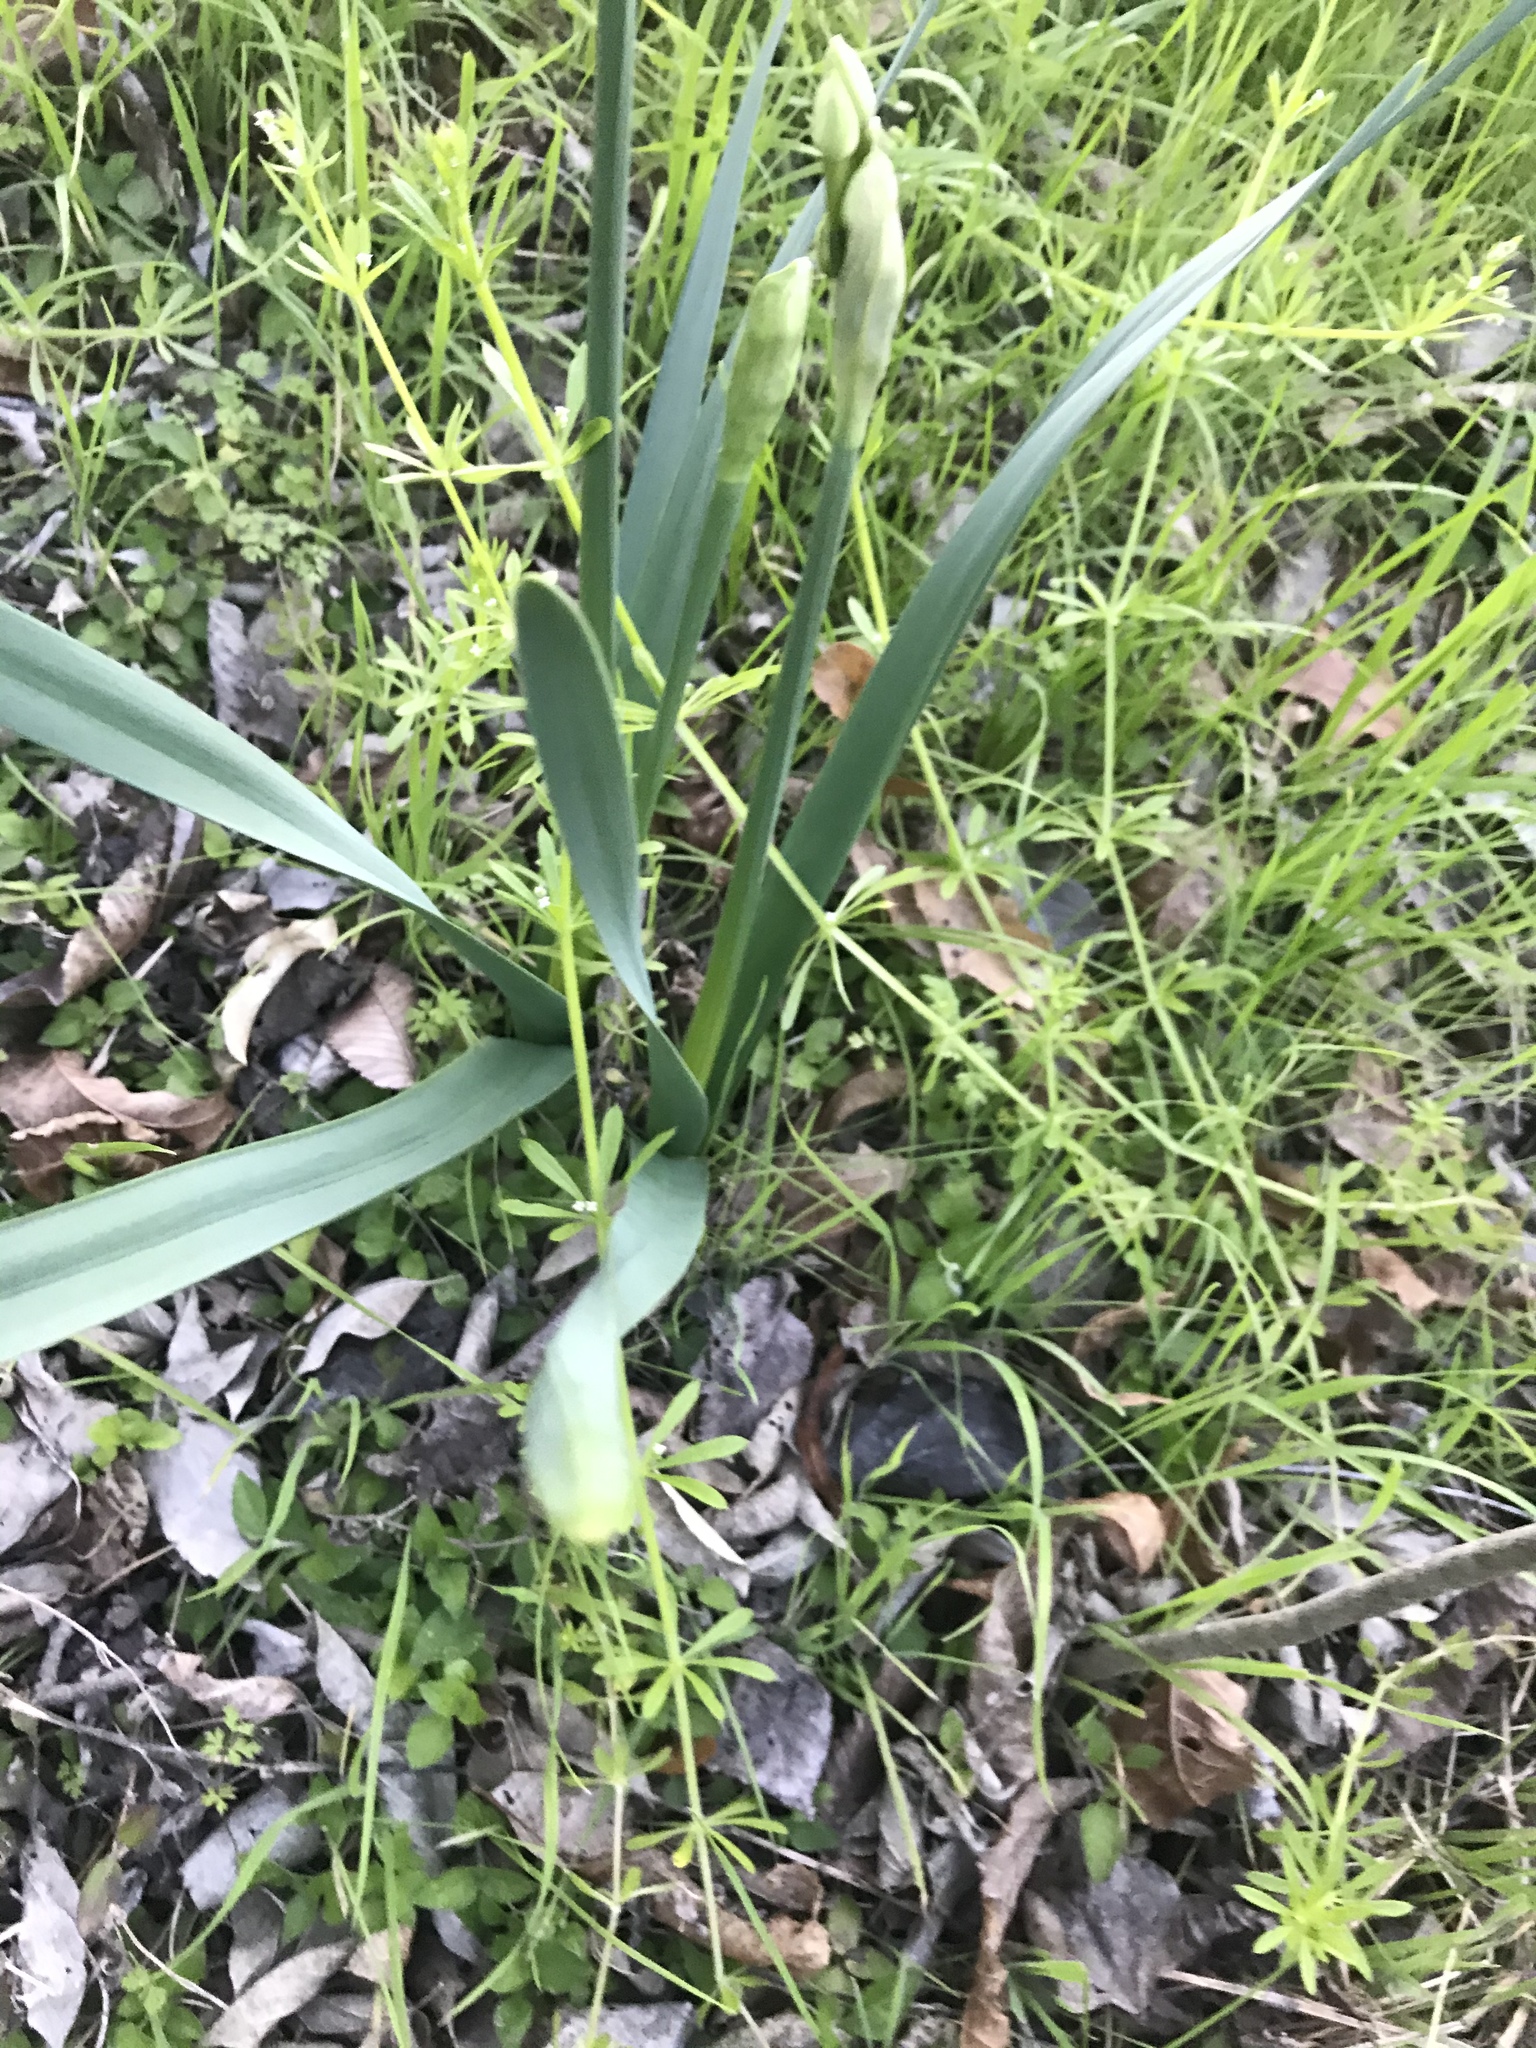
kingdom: Plantae
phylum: Tracheophyta
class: Liliopsida
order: Asparagales
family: Amaryllidaceae
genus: Narcissus
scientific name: Narcissus papyraceus
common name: Paper-white daffodil
